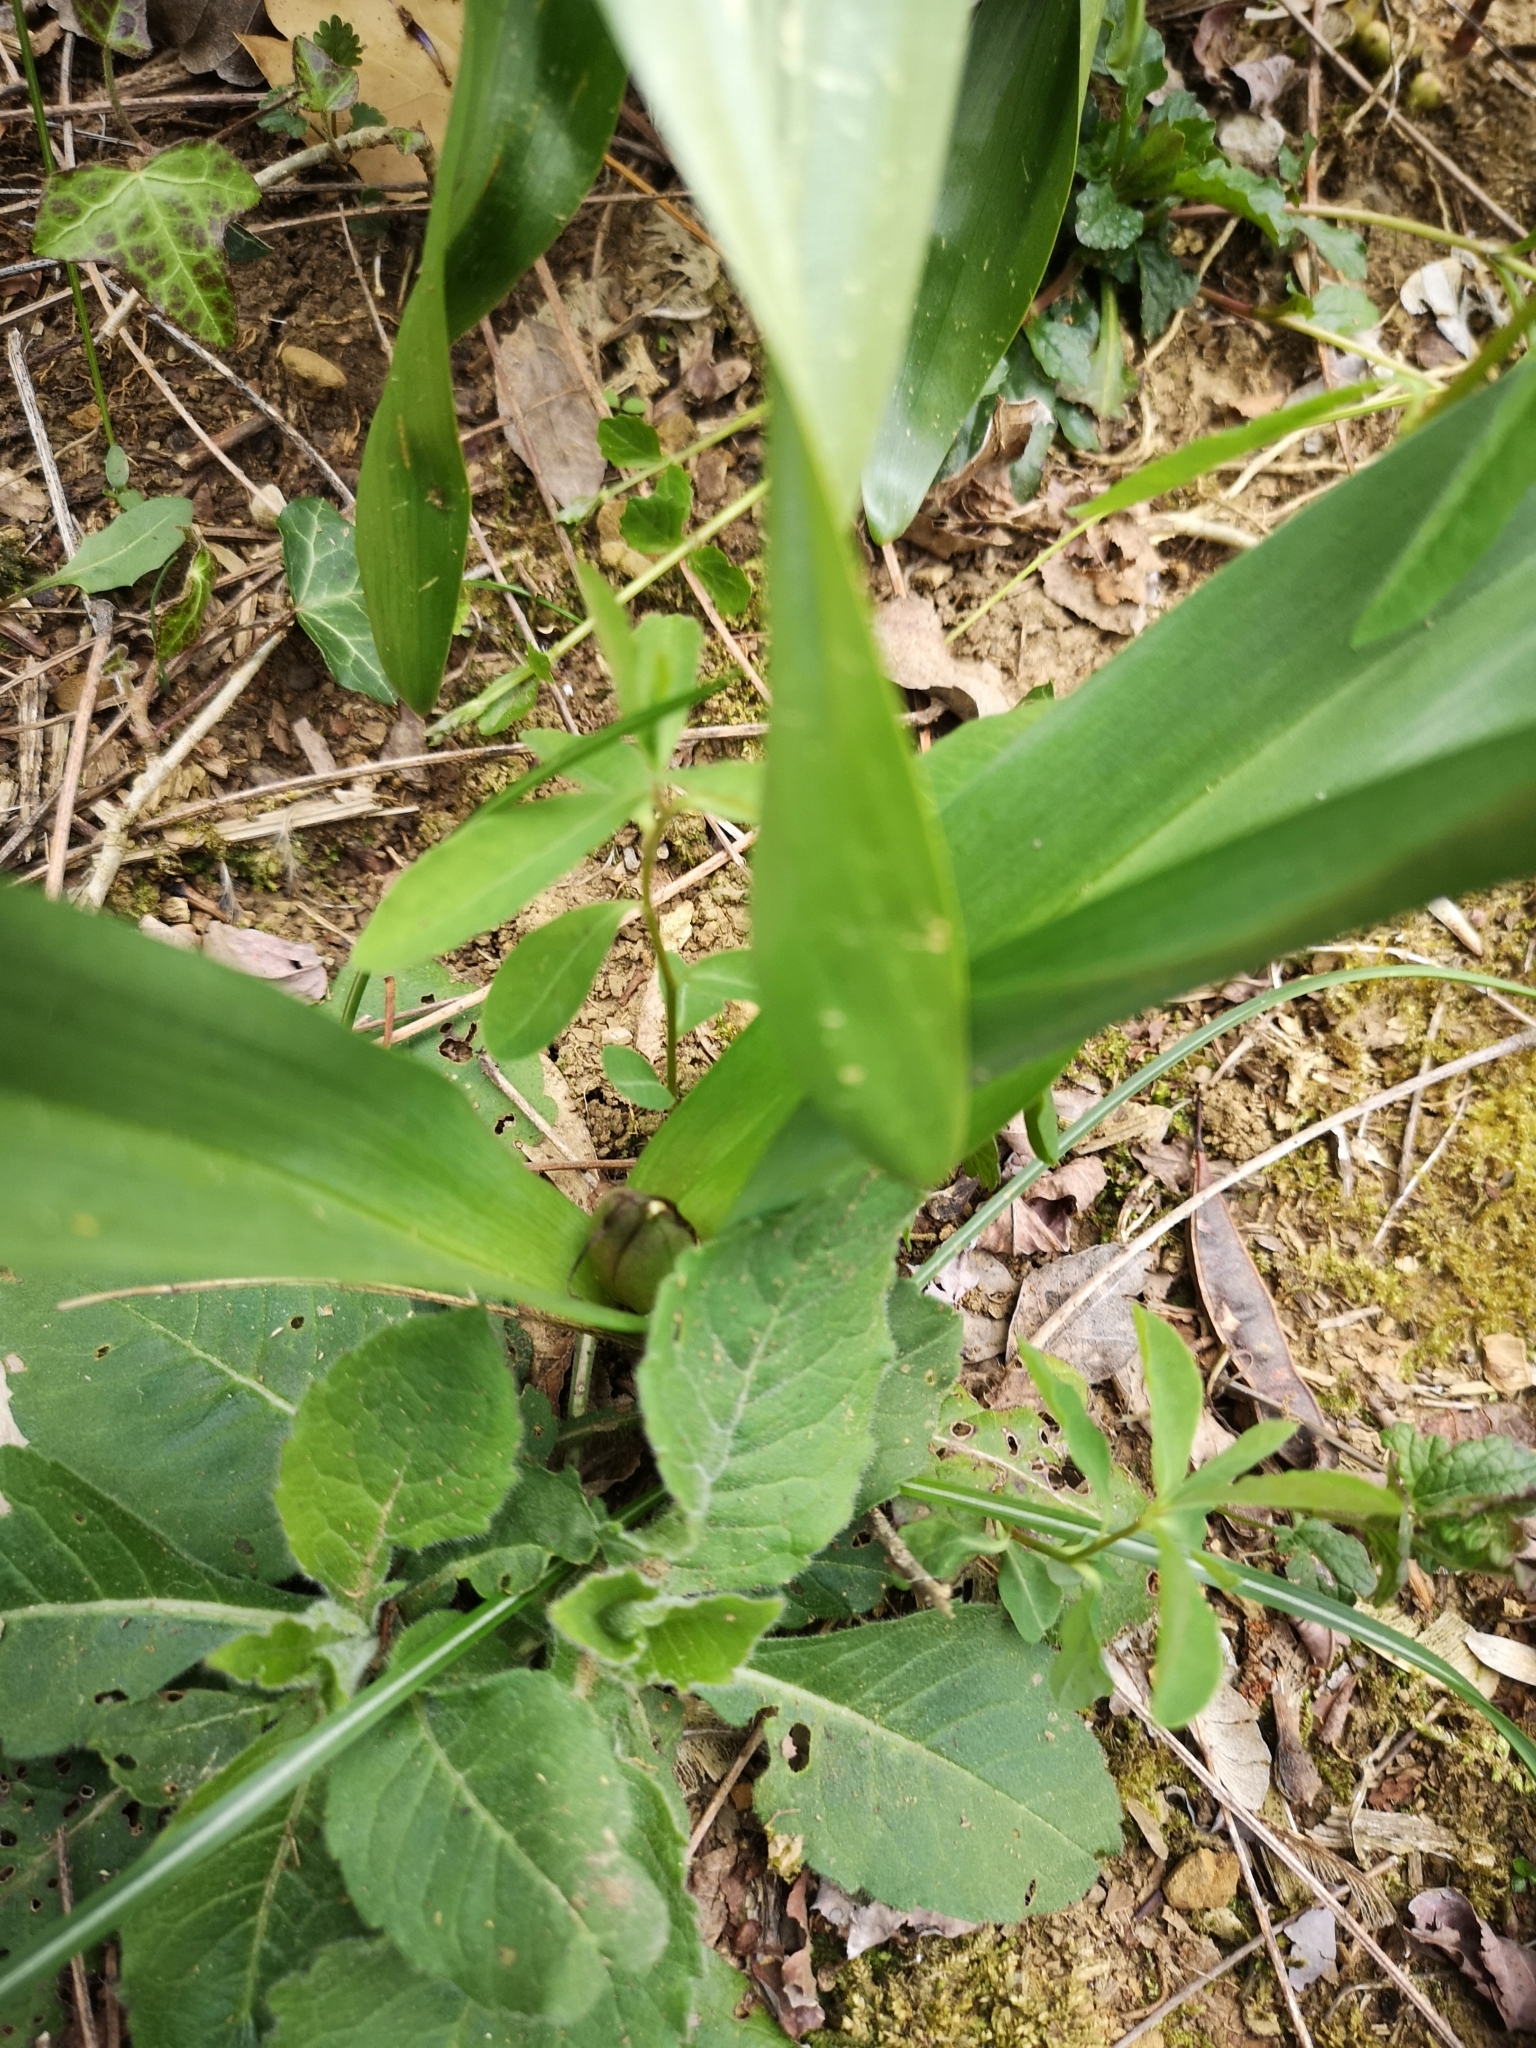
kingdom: Plantae
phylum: Tracheophyta
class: Liliopsida
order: Liliales
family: Colchicaceae
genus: Colchicum
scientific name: Colchicum autumnale
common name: Autumn crocus
